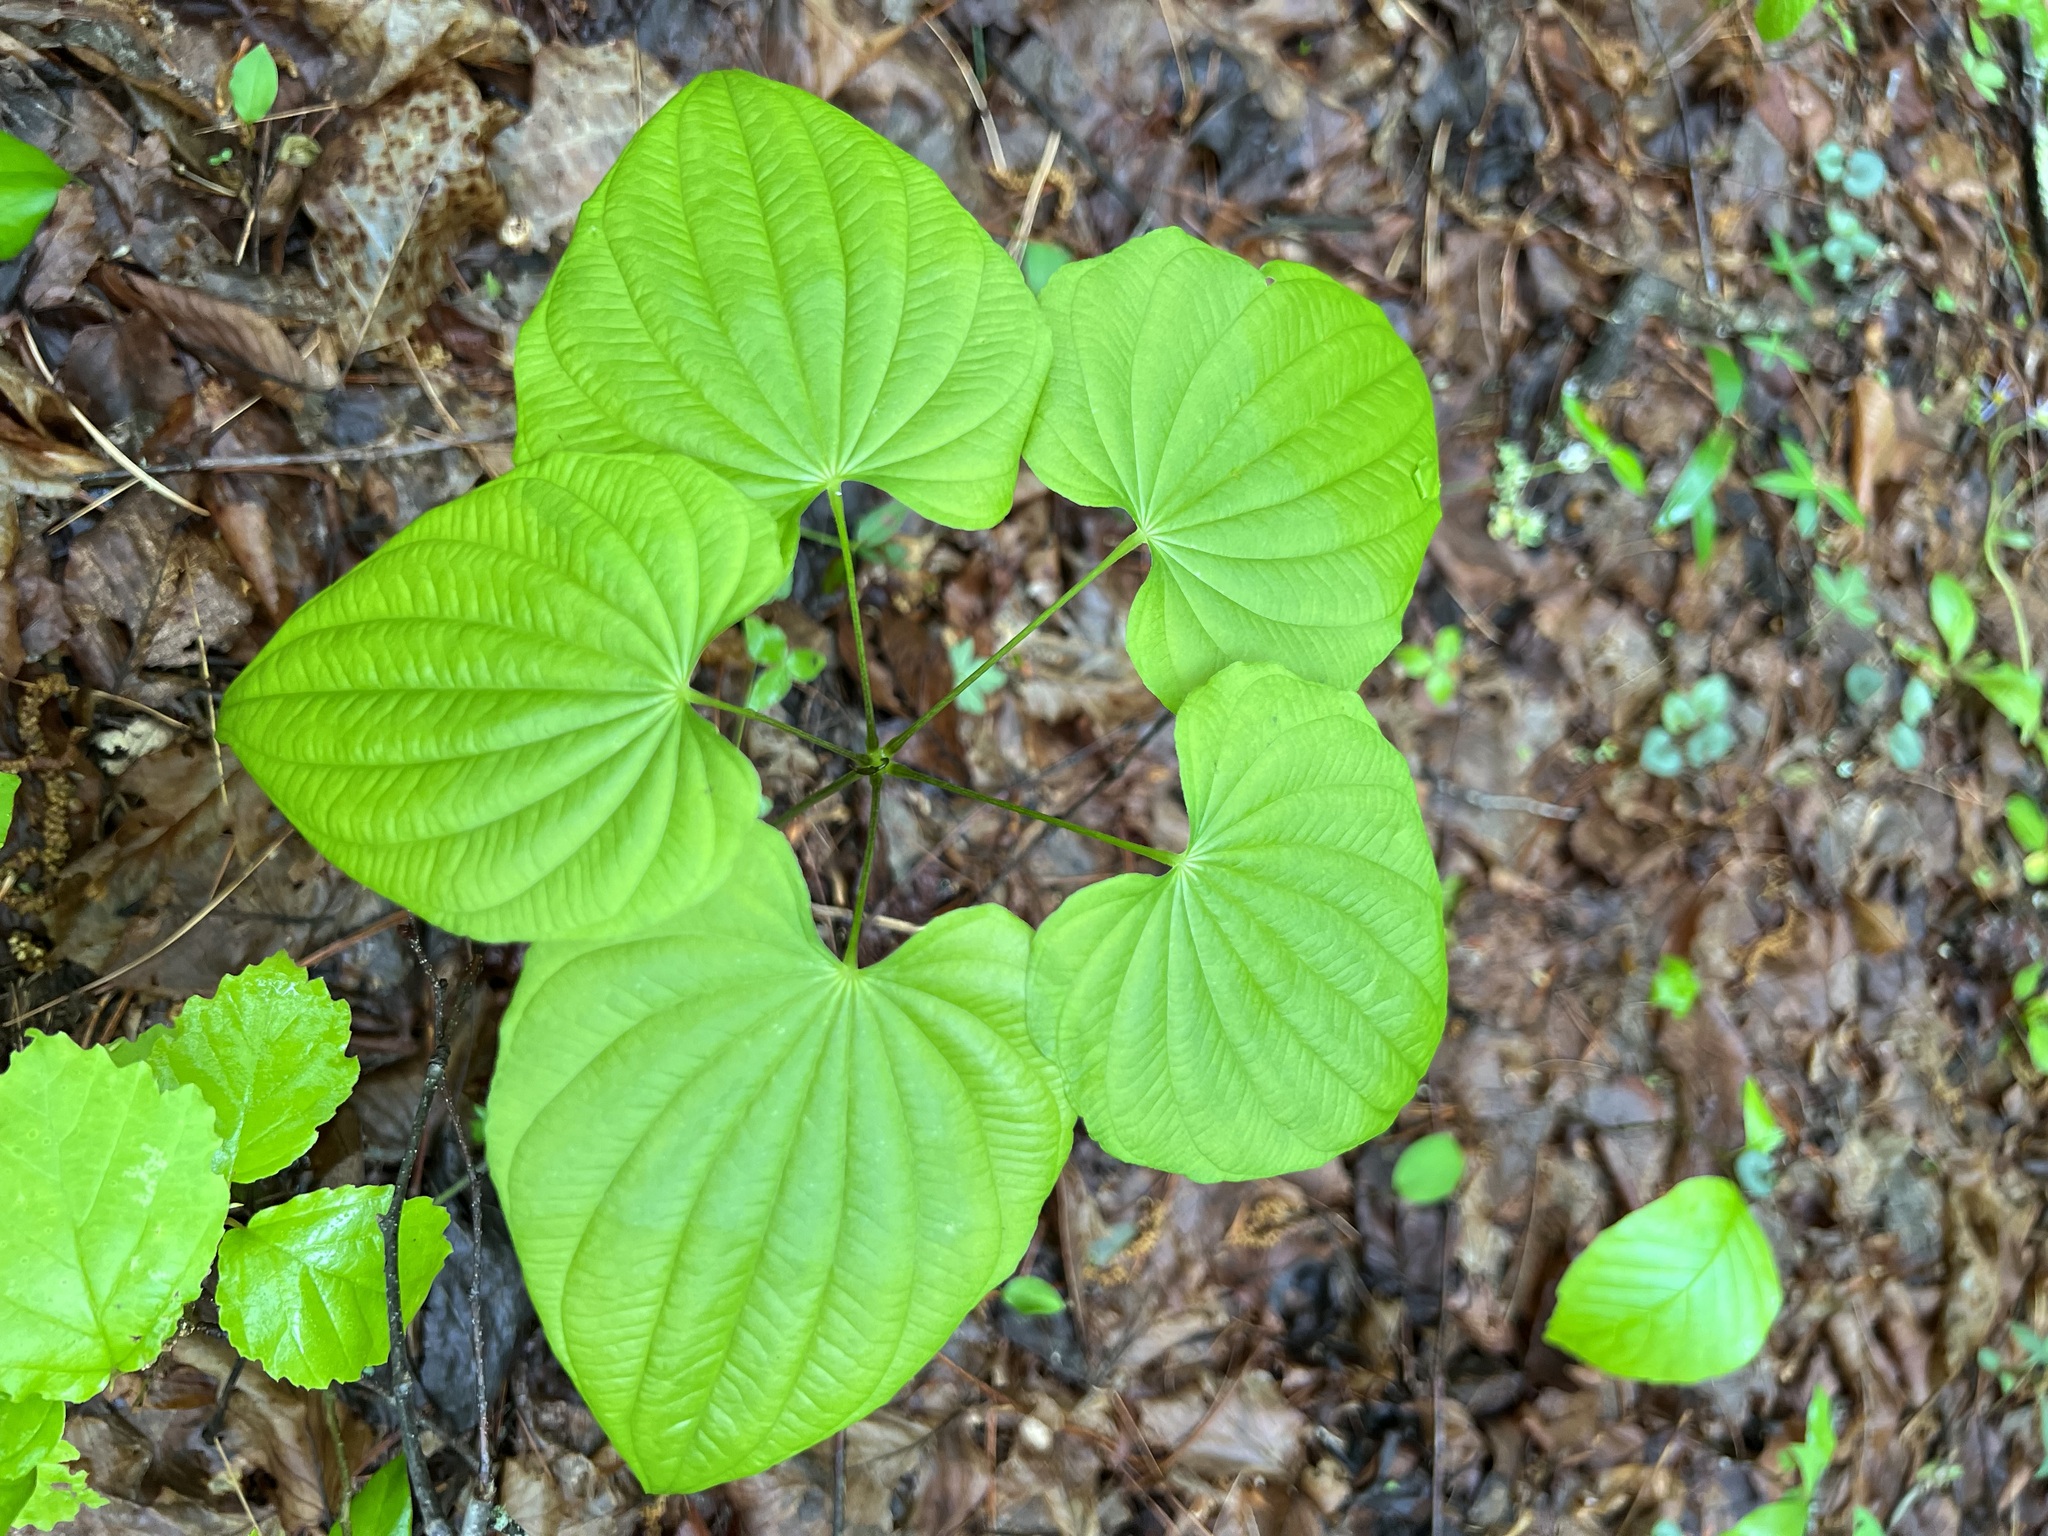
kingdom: Plantae
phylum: Tracheophyta
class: Liliopsida
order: Dioscoreales
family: Dioscoreaceae
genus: Dioscorea
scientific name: Dioscorea villosa
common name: Wild yam
